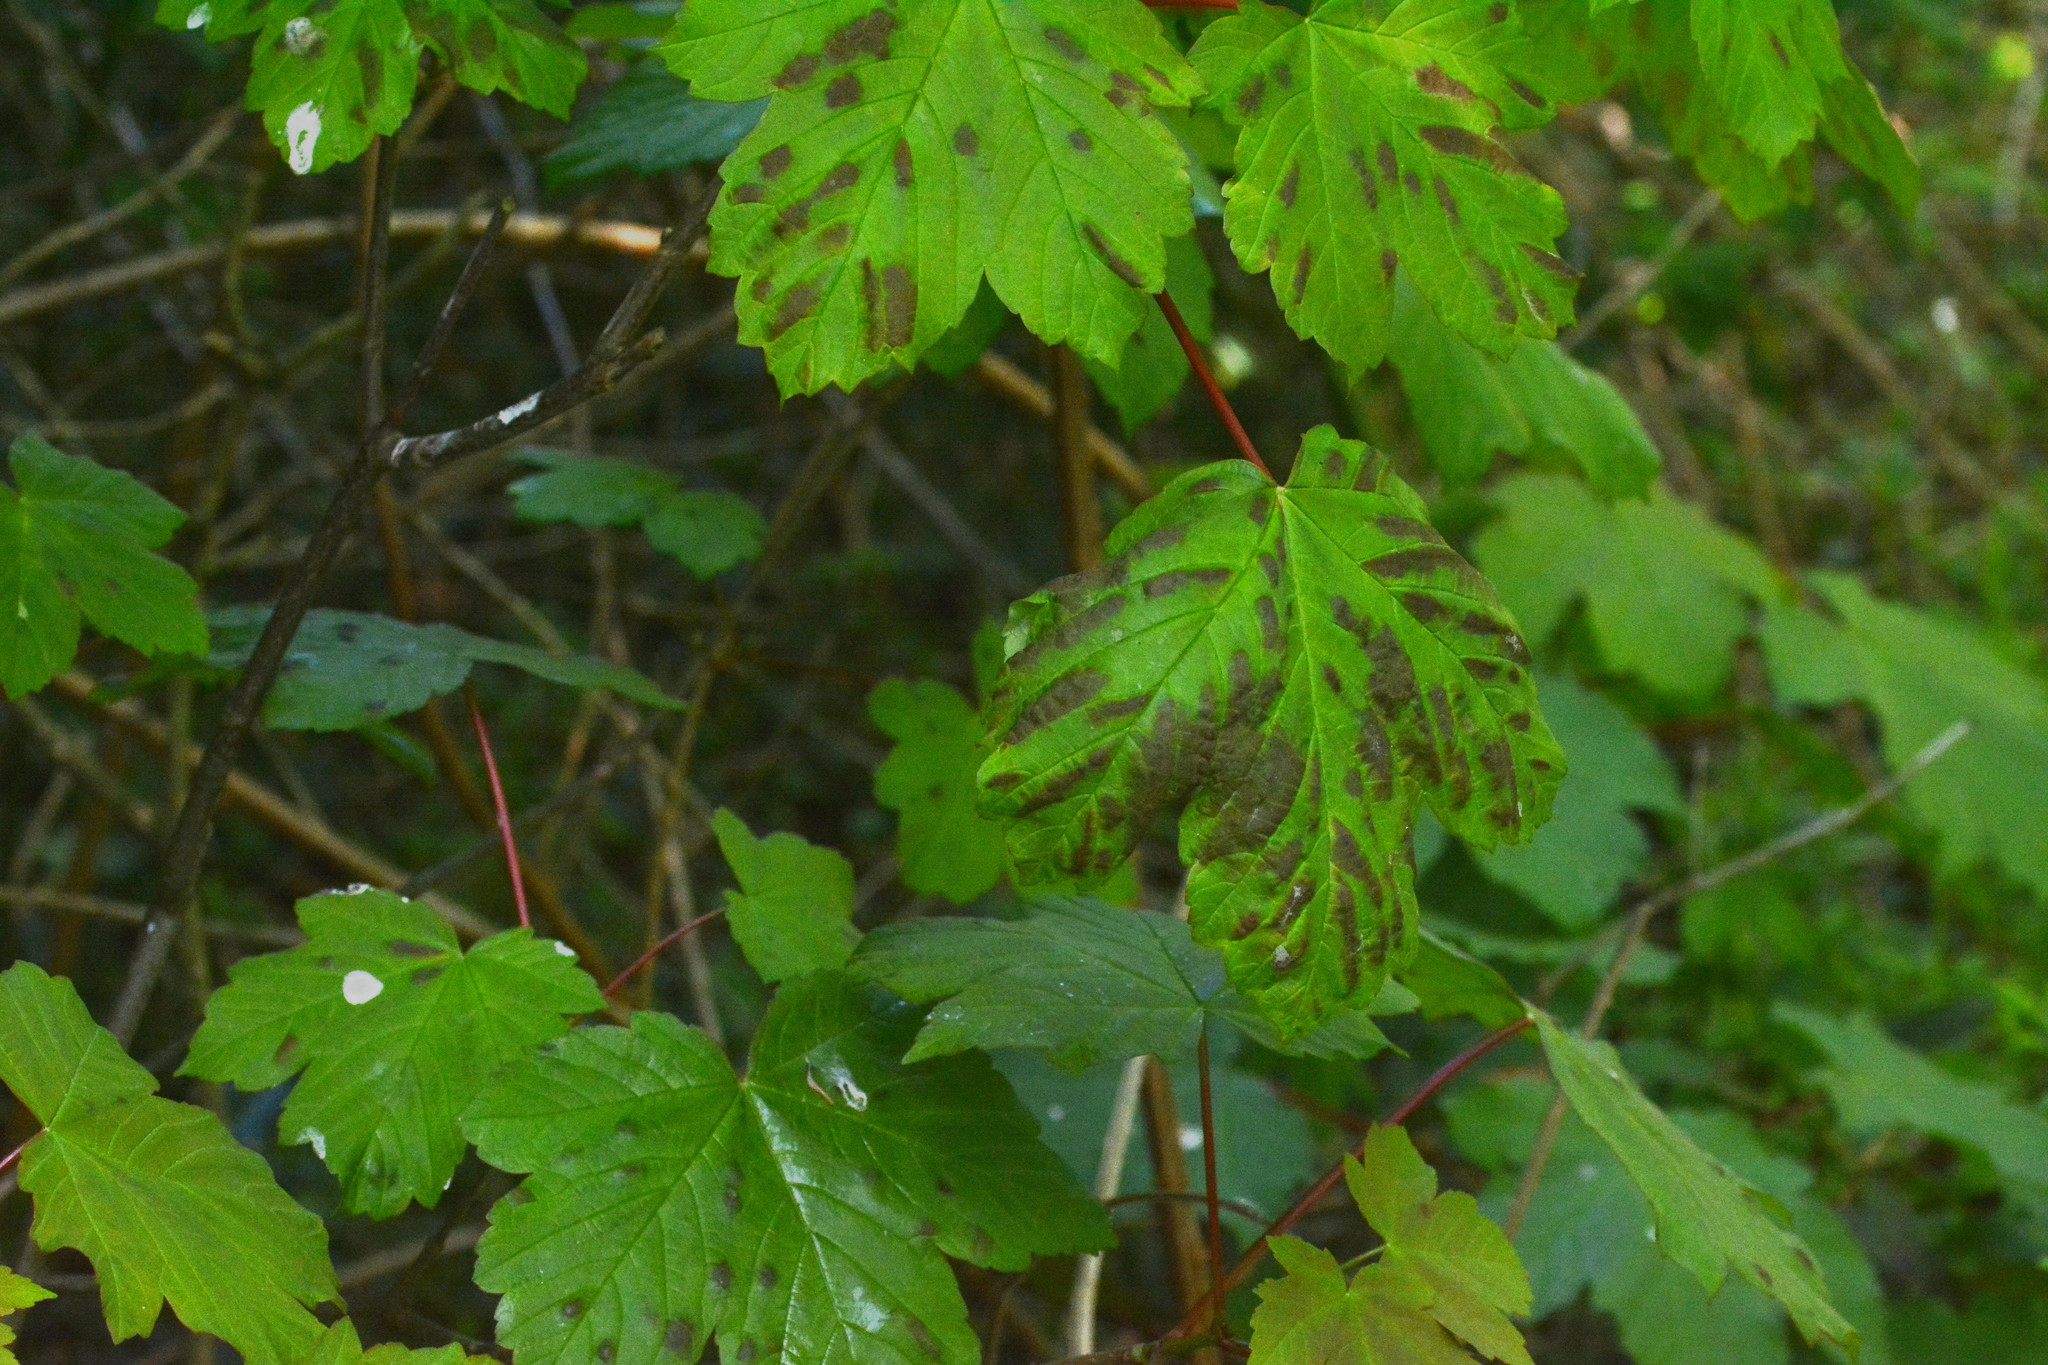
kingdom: Plantae
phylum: Tracheophyta
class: Magnoliopsida
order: Sapindales
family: Sapindaceae
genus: Acer
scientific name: Acer pseudoplatanus
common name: Sycamore
